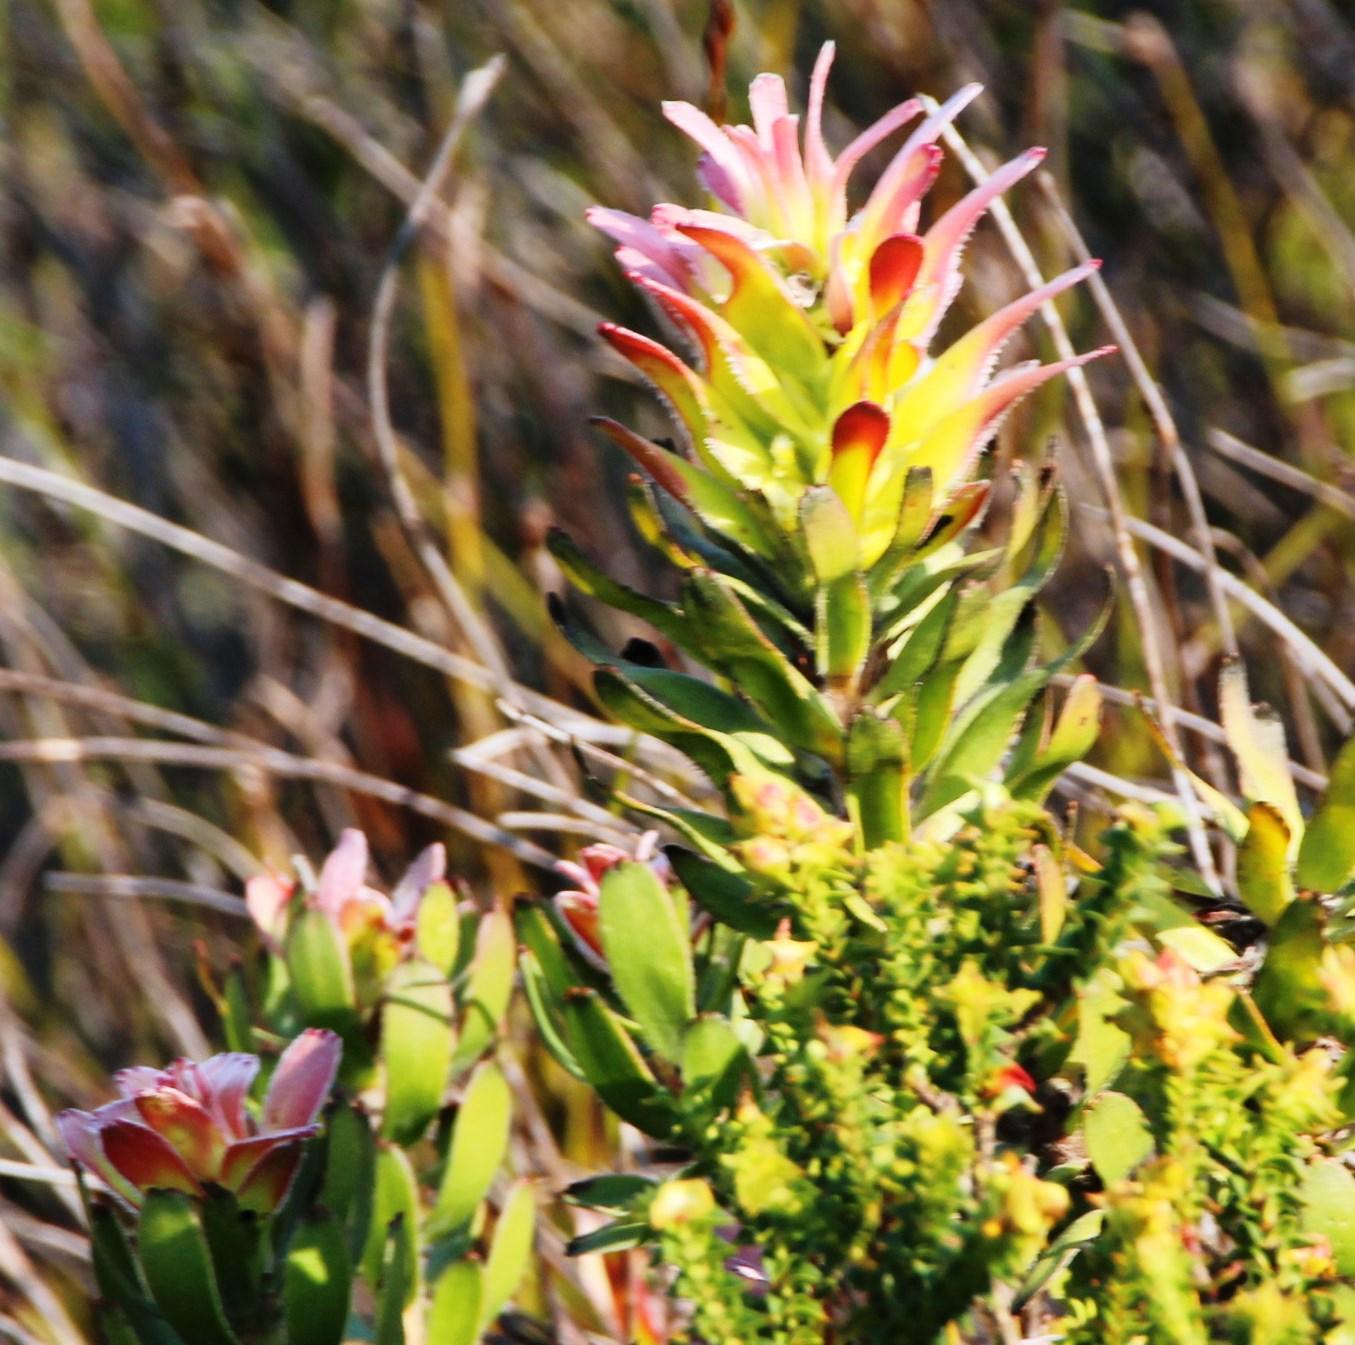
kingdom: Plantae
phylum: Tracheophyta
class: Magnoliopsida
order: Proteales
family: Proteaceae
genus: Mimetes
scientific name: Mimetes cucullatus
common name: Common pagoda
